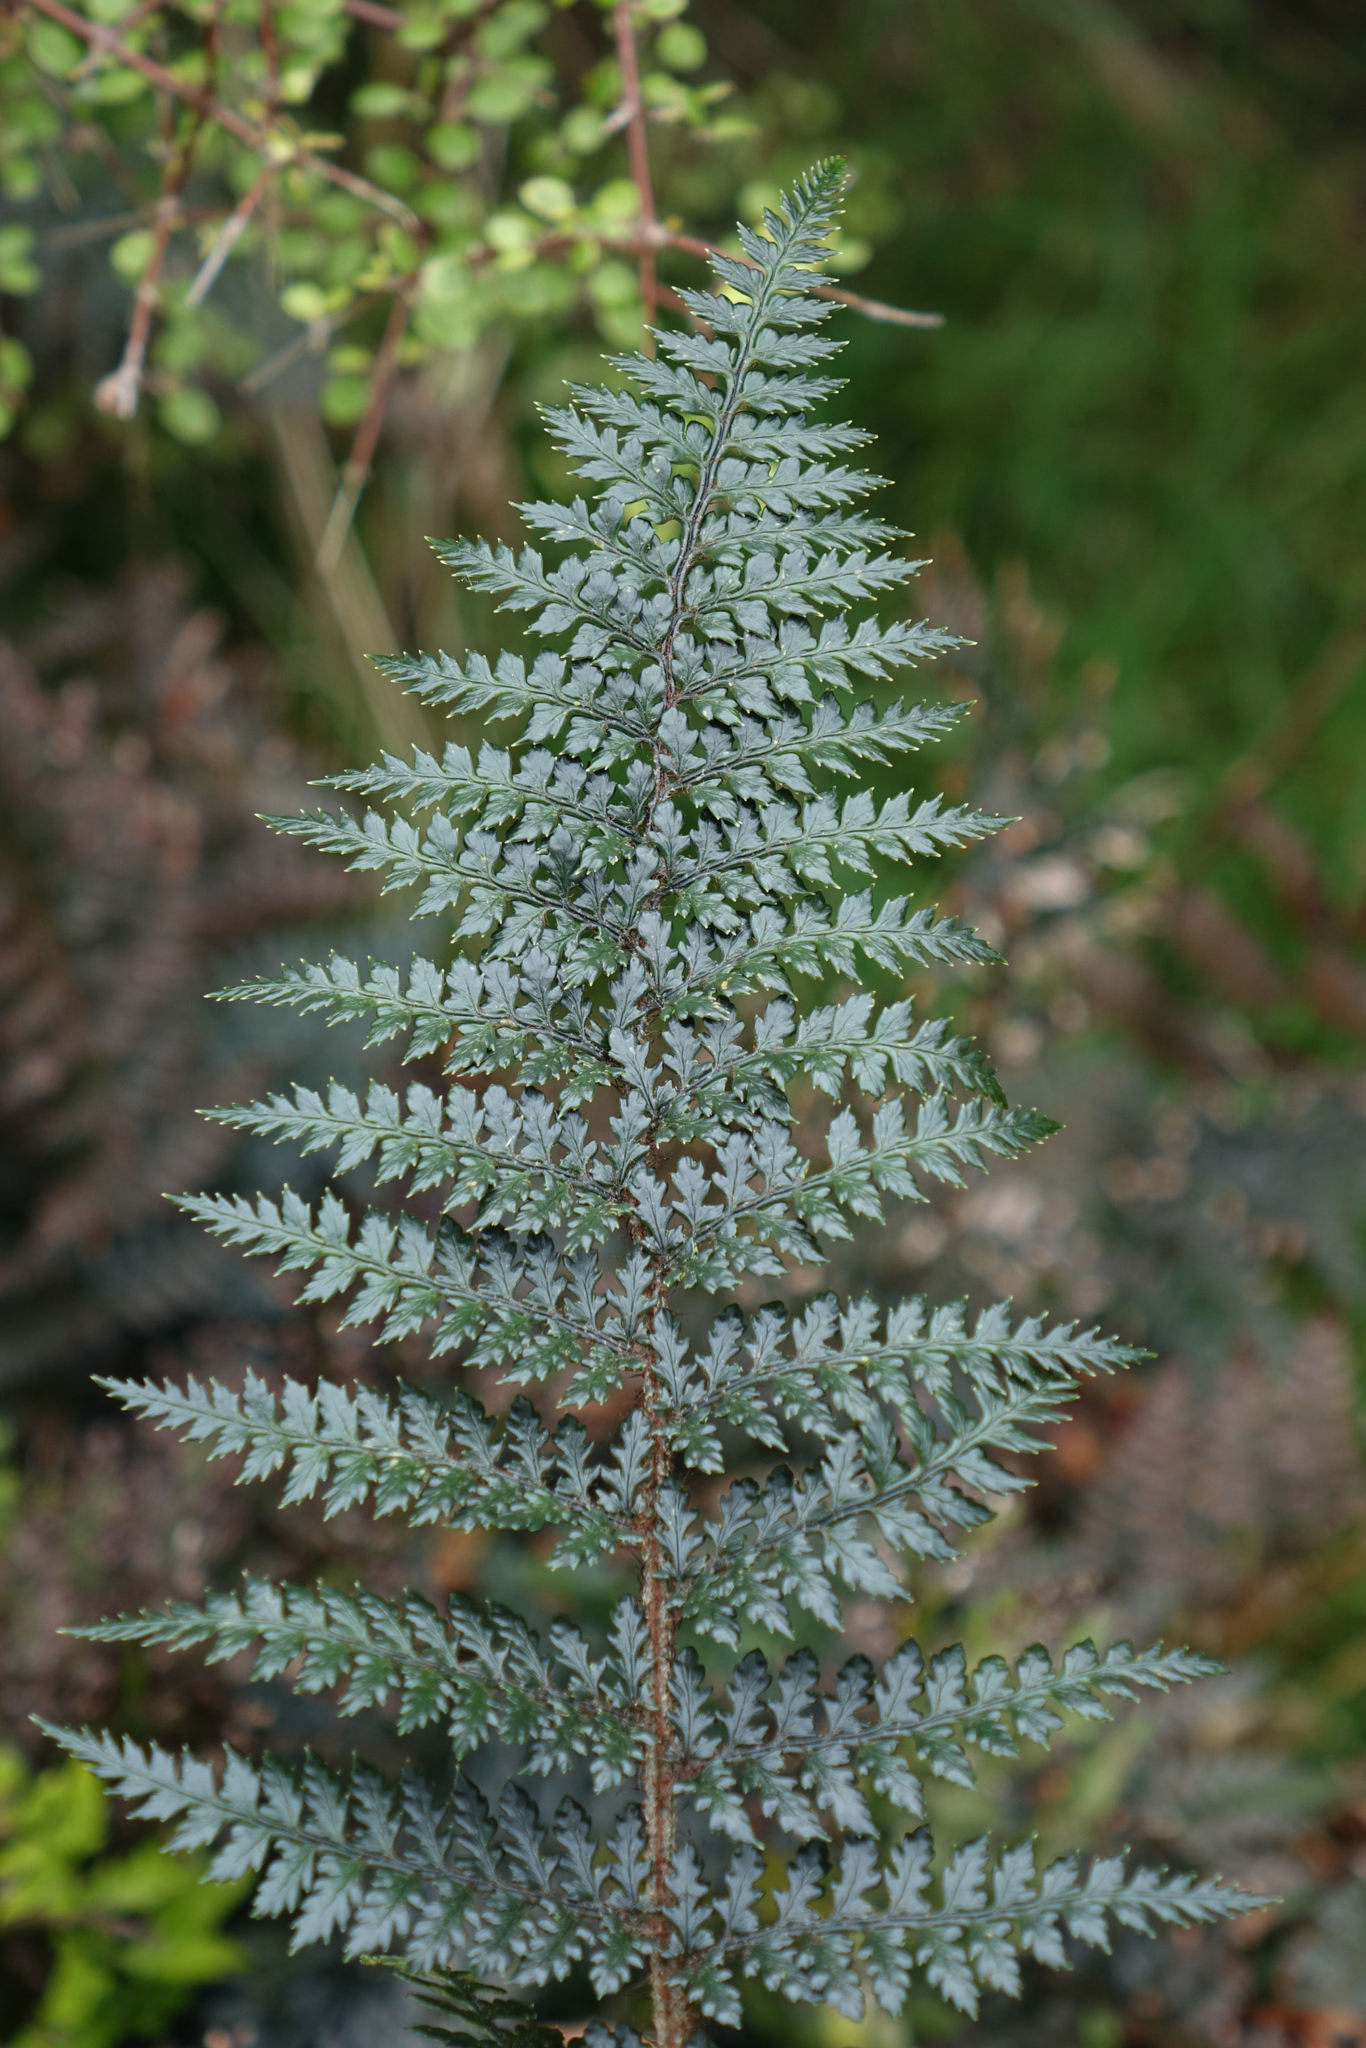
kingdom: Plantae
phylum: Tracheophyta
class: Polypodiopsida
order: Polypodiales
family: Dryopteridaceae
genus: Polystichum
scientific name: Polystichum neozelandicum
